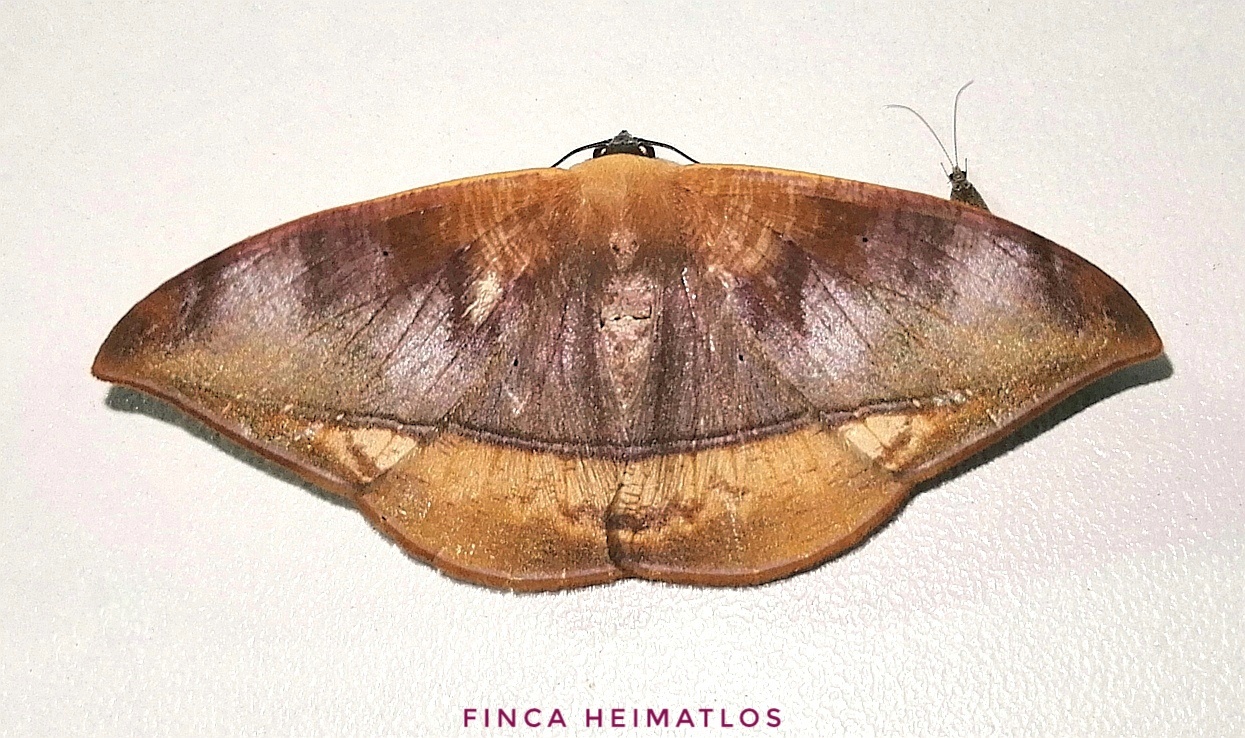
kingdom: Animalia
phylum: Arthropoda
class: Insecta
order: Lepidoptera
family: Geometridae
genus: Herbita
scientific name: Herbita nedusia
